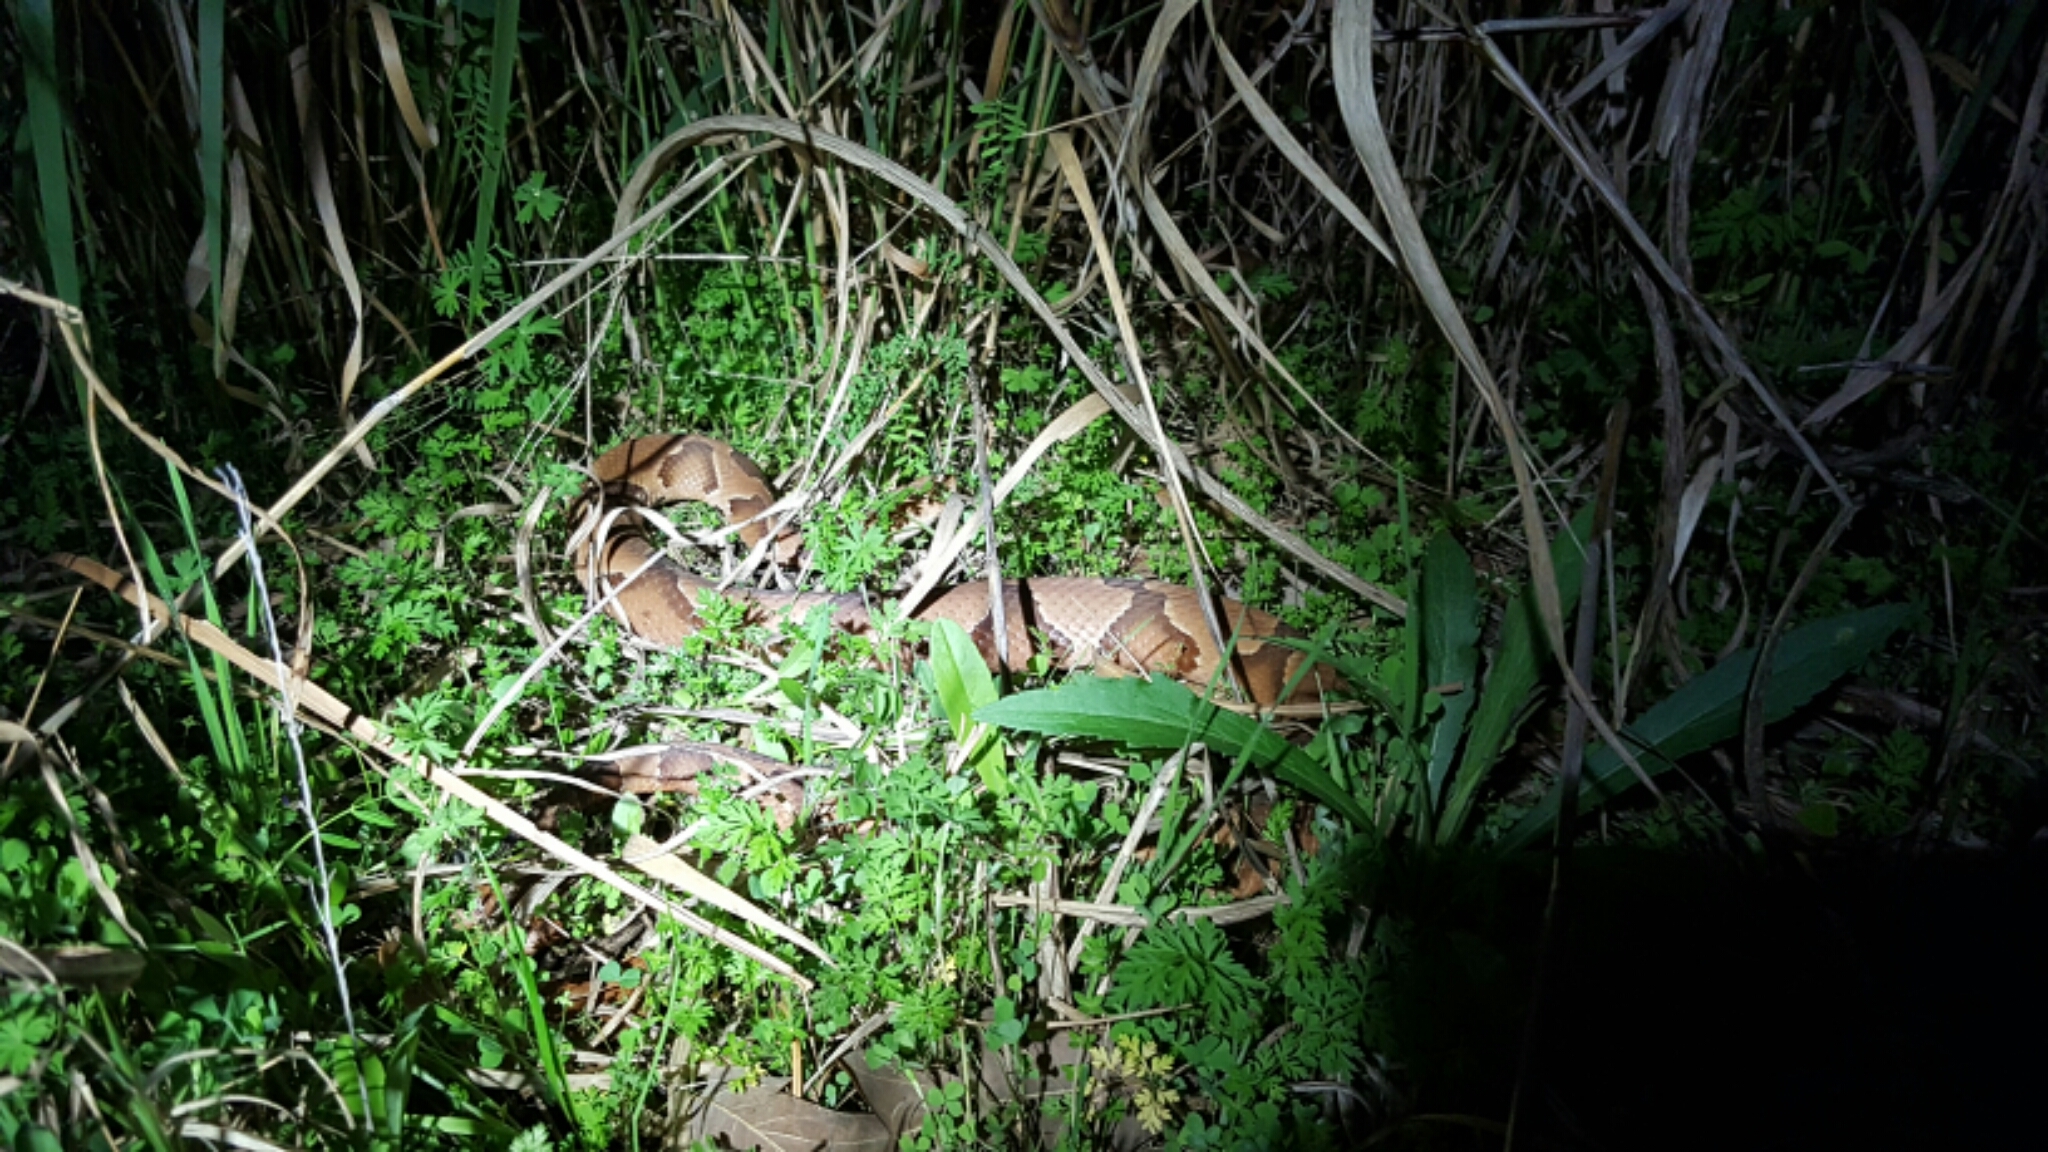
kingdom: Animalia
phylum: Chordata
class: Squamata
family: Viperidae
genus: Agkistrodon
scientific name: Agkistrodon contortrix
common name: Northern copperhead
